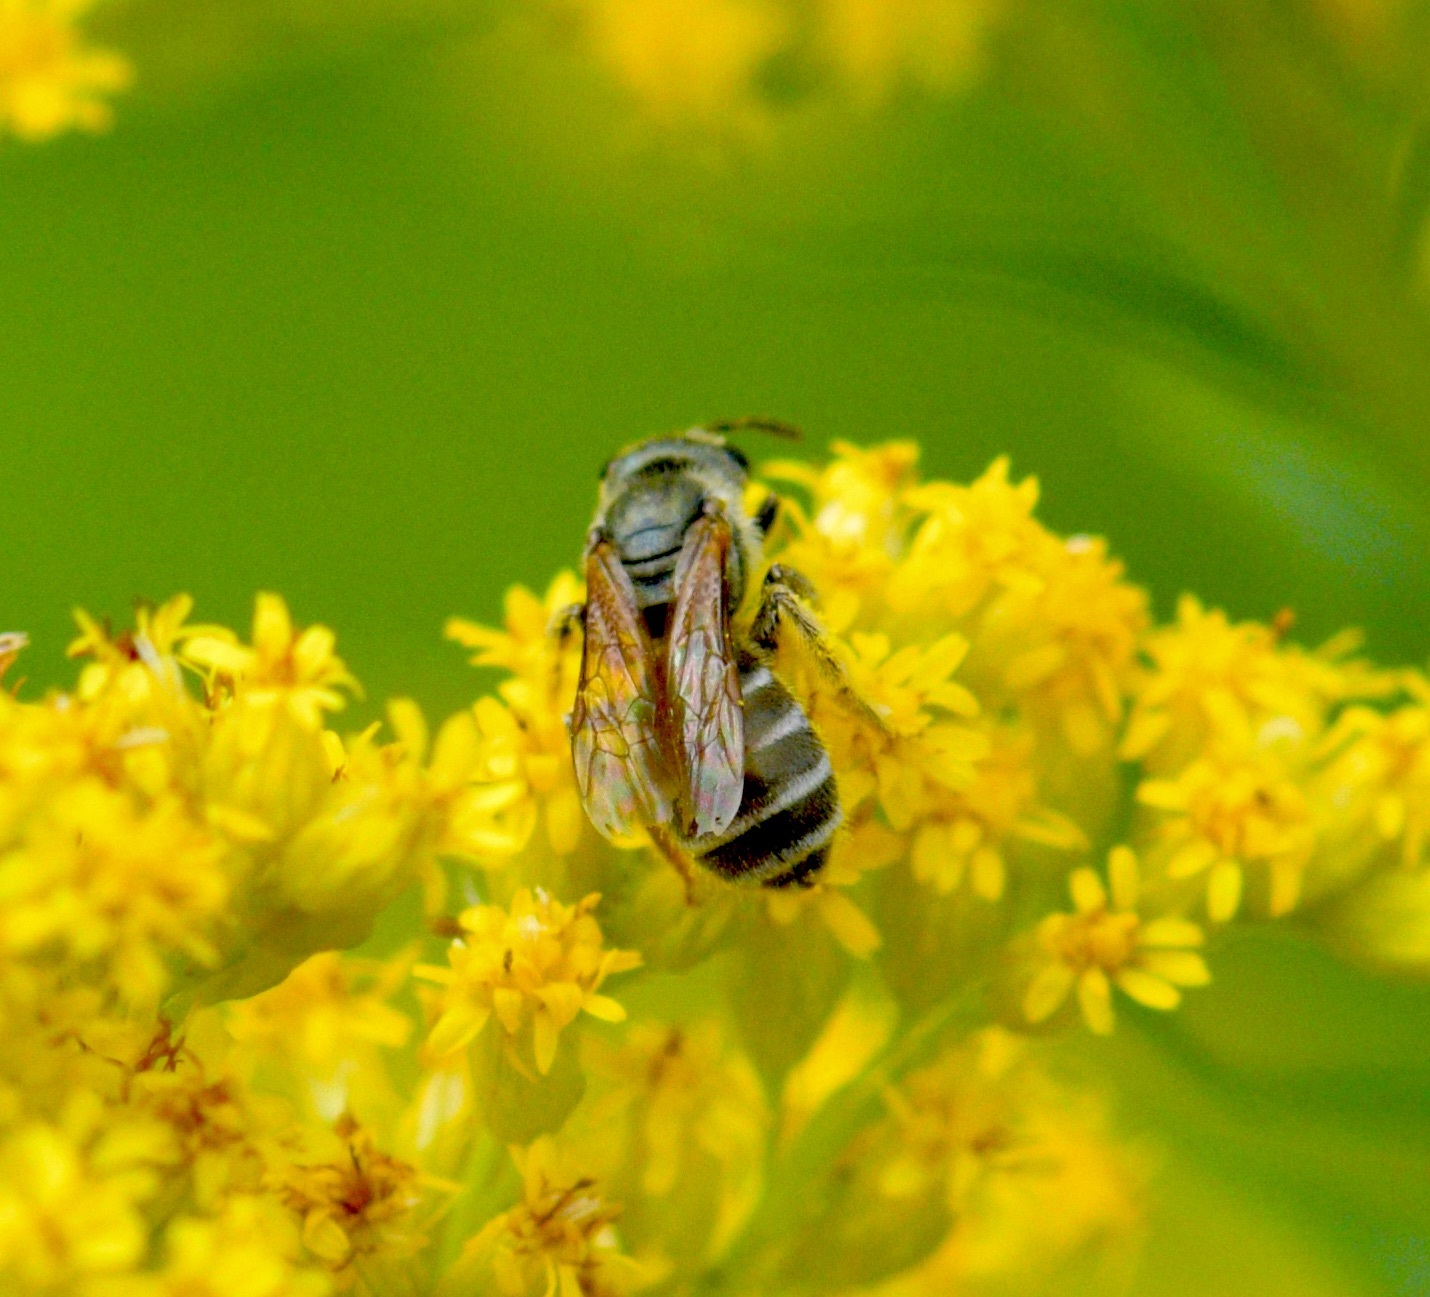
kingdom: Animalia
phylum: Arthropoda
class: Insecta
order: Hymenoptera
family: Halictidae
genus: Halictus
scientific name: Halictus confusus
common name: Southern bronze furrow bee
